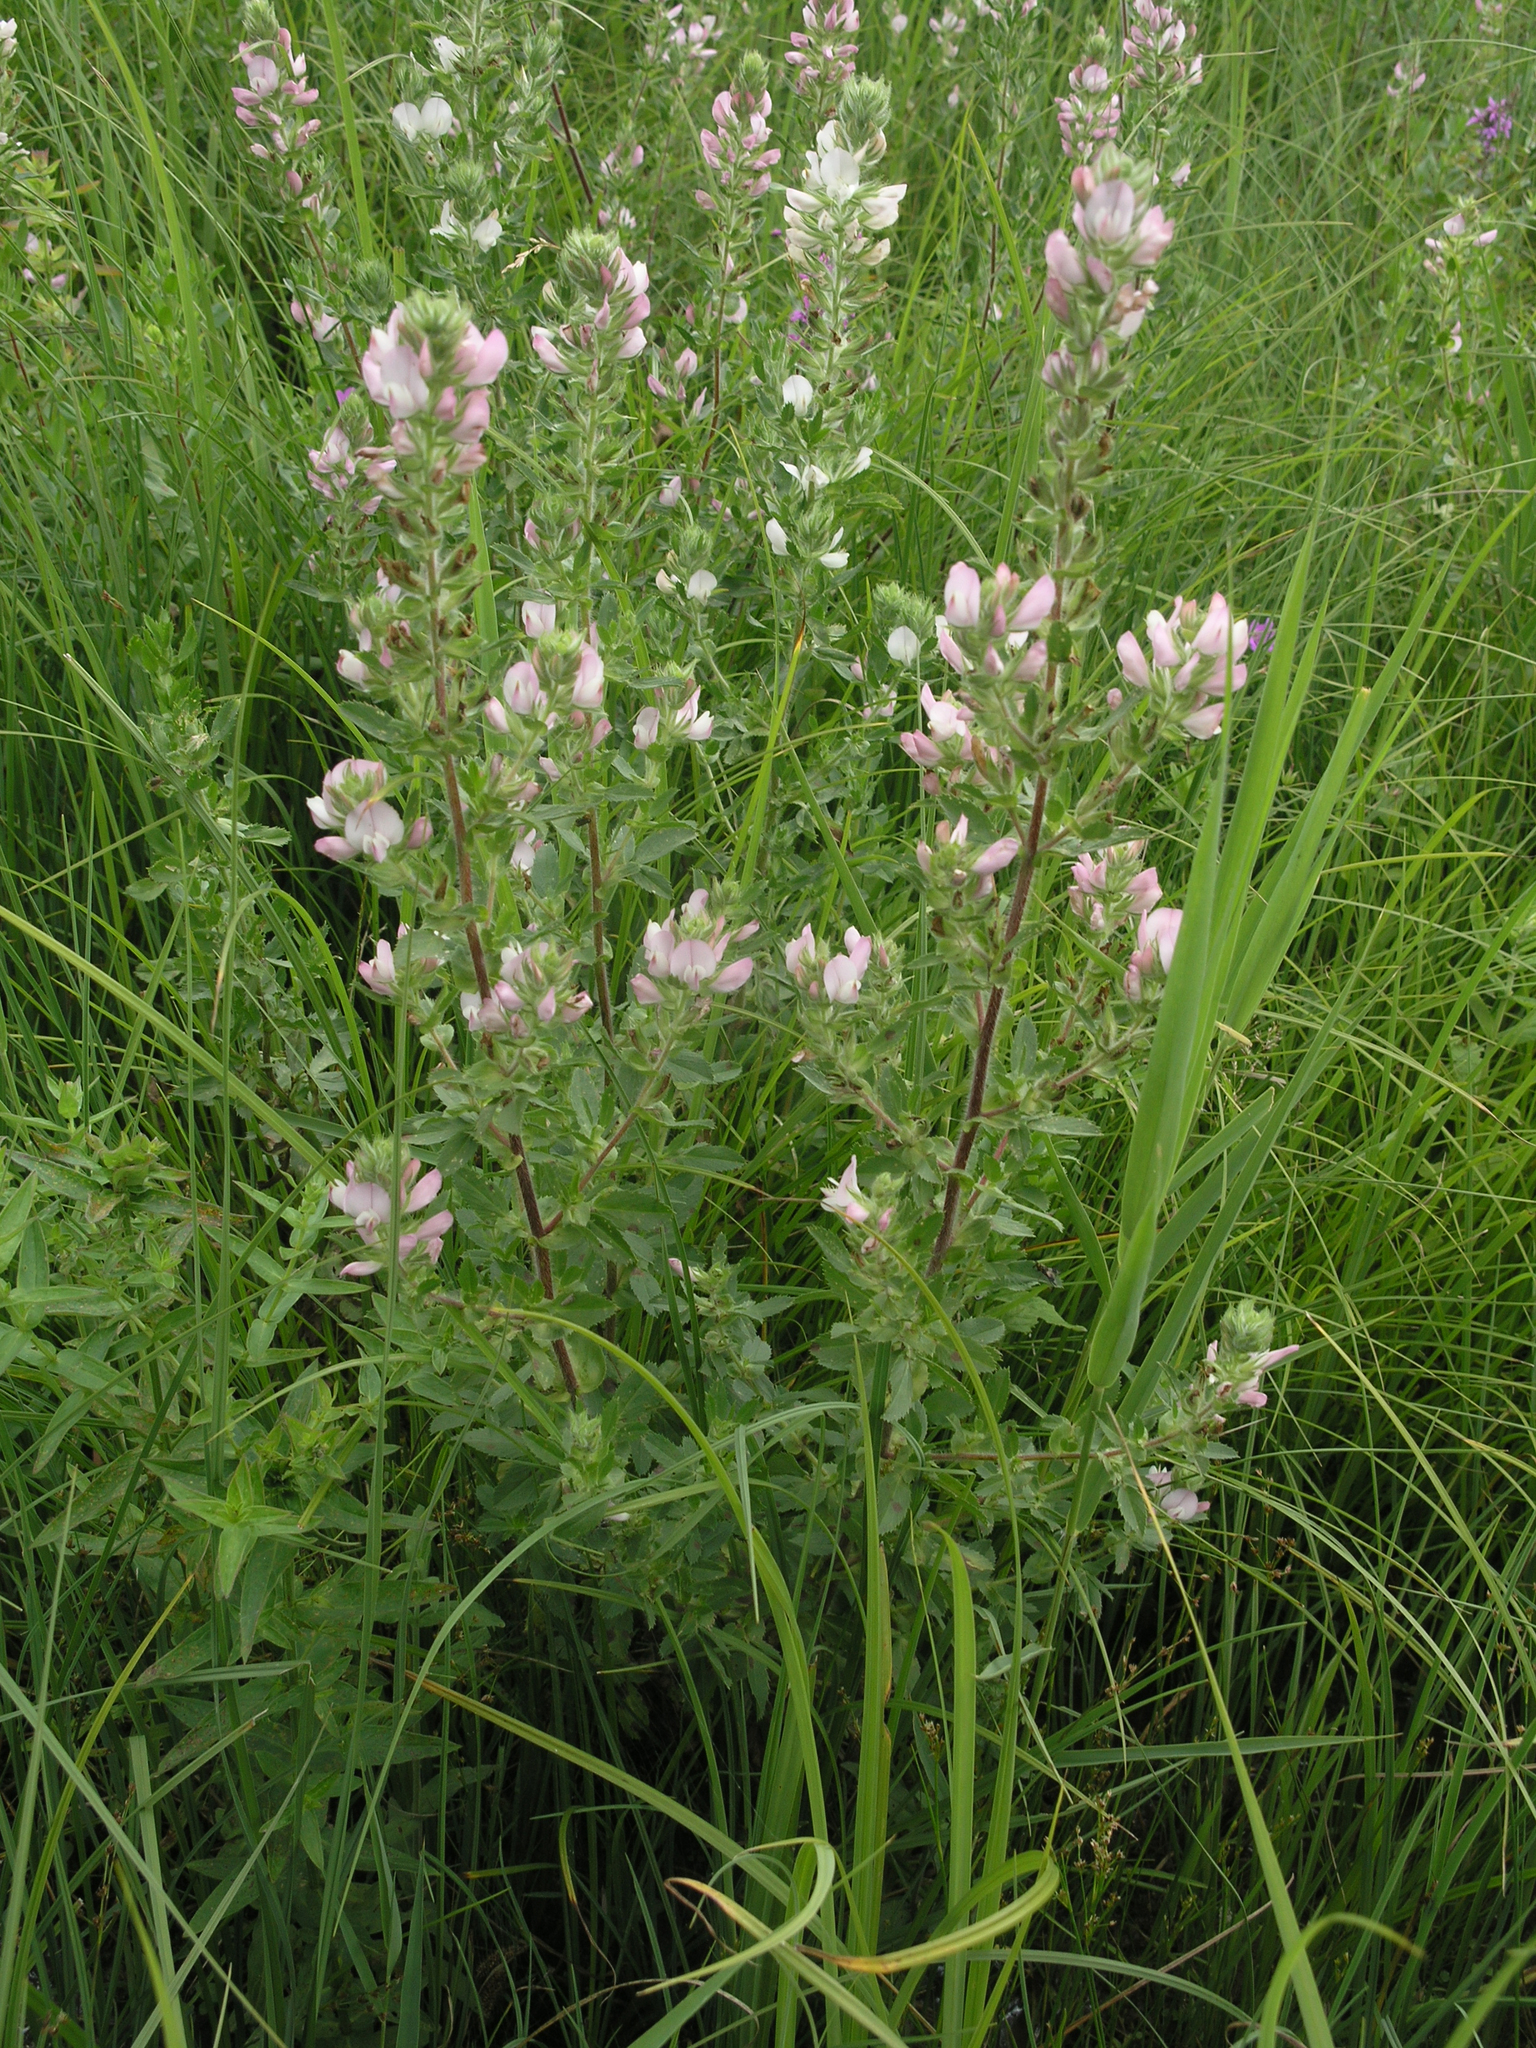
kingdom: Plantae
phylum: Tracheophyta
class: Magnoliopsida
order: Fabales
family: Fabaceae
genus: Ononis
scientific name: Ononis arvensis
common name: Field restharrow
